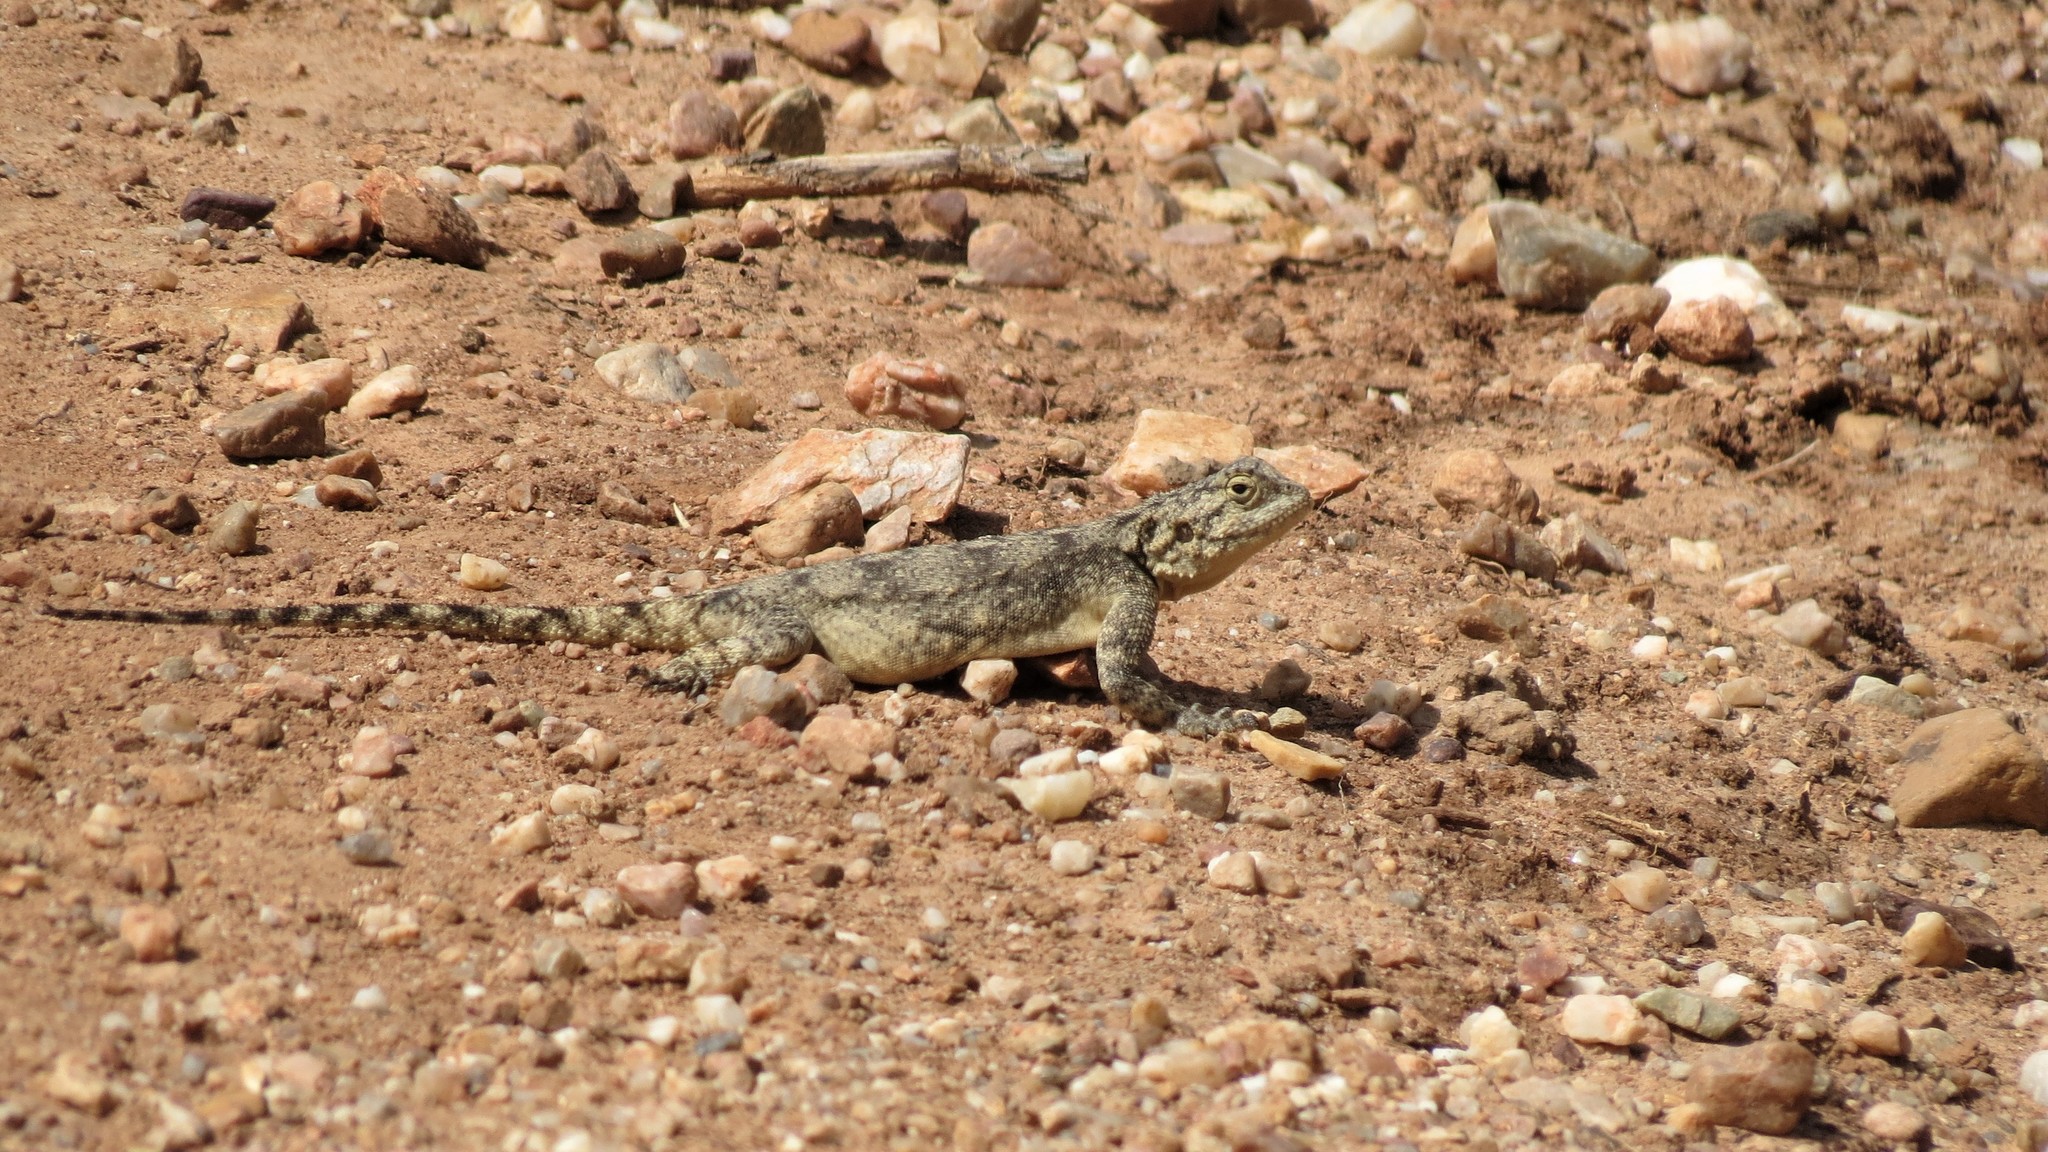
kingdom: Animalia
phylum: Chordata
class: Squamata
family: Agamidae
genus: Agama
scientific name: Agama atra
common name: Southern african rock agama
